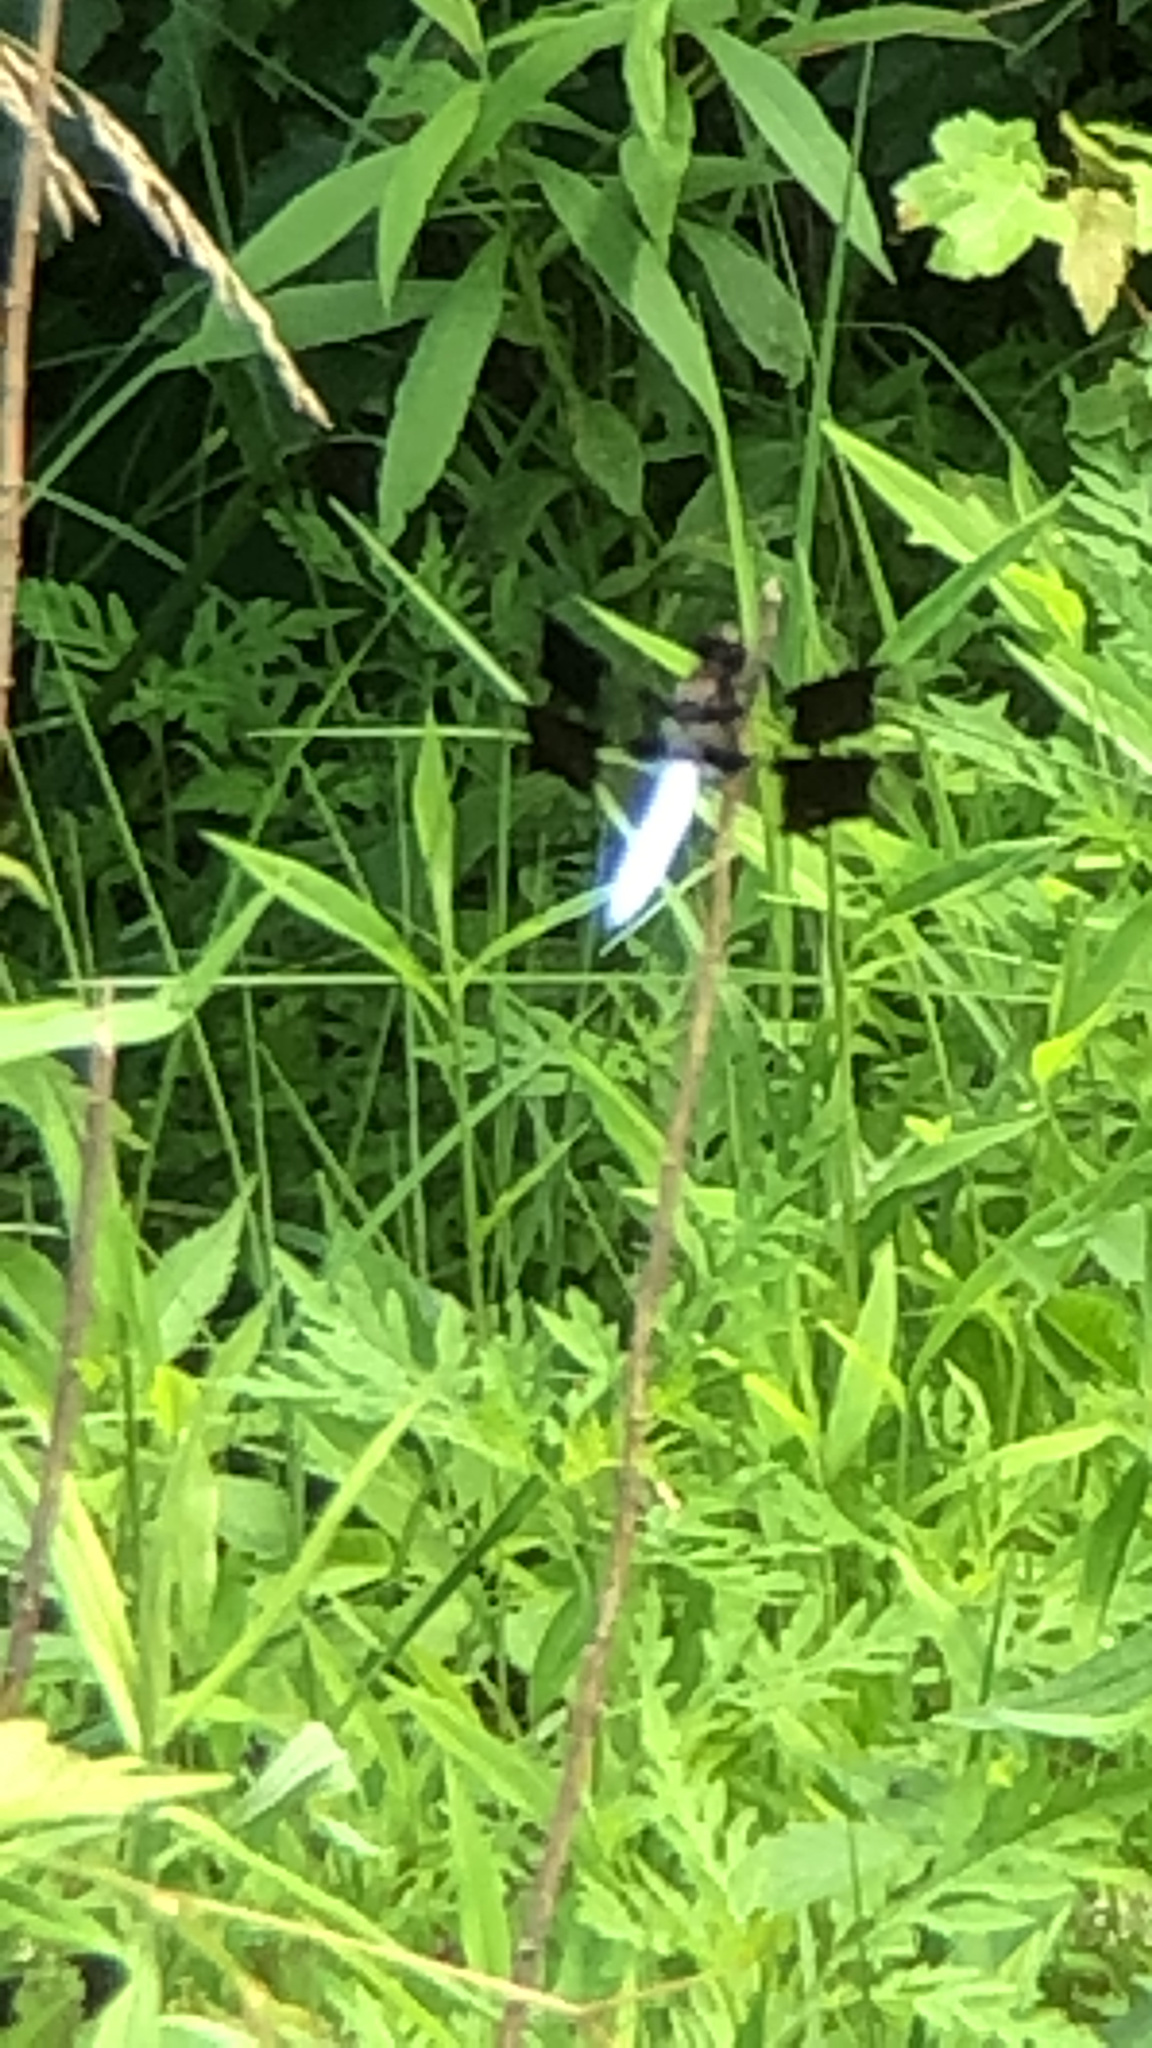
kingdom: Animalia
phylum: Arthropoda
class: Insecta
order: Odonata
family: Libellulidae
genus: Plathemis
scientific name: Plathemis lydia
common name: Common whitetail
